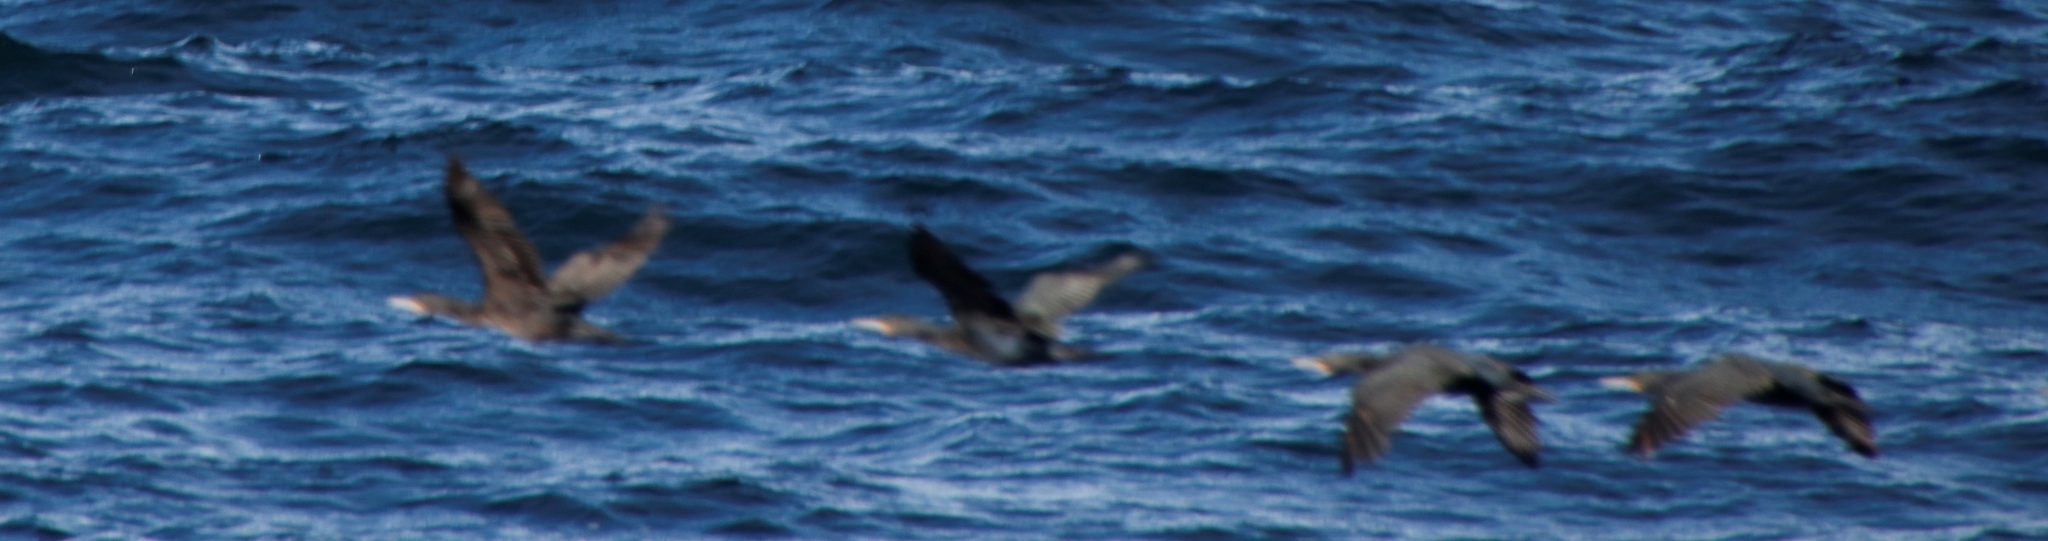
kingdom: Animalia
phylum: Chordata
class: Aves
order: Suliformes
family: Phalacrocoracidae
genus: Phalacrocorax
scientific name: Phalacrocorax capensis
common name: Cape cormorant
